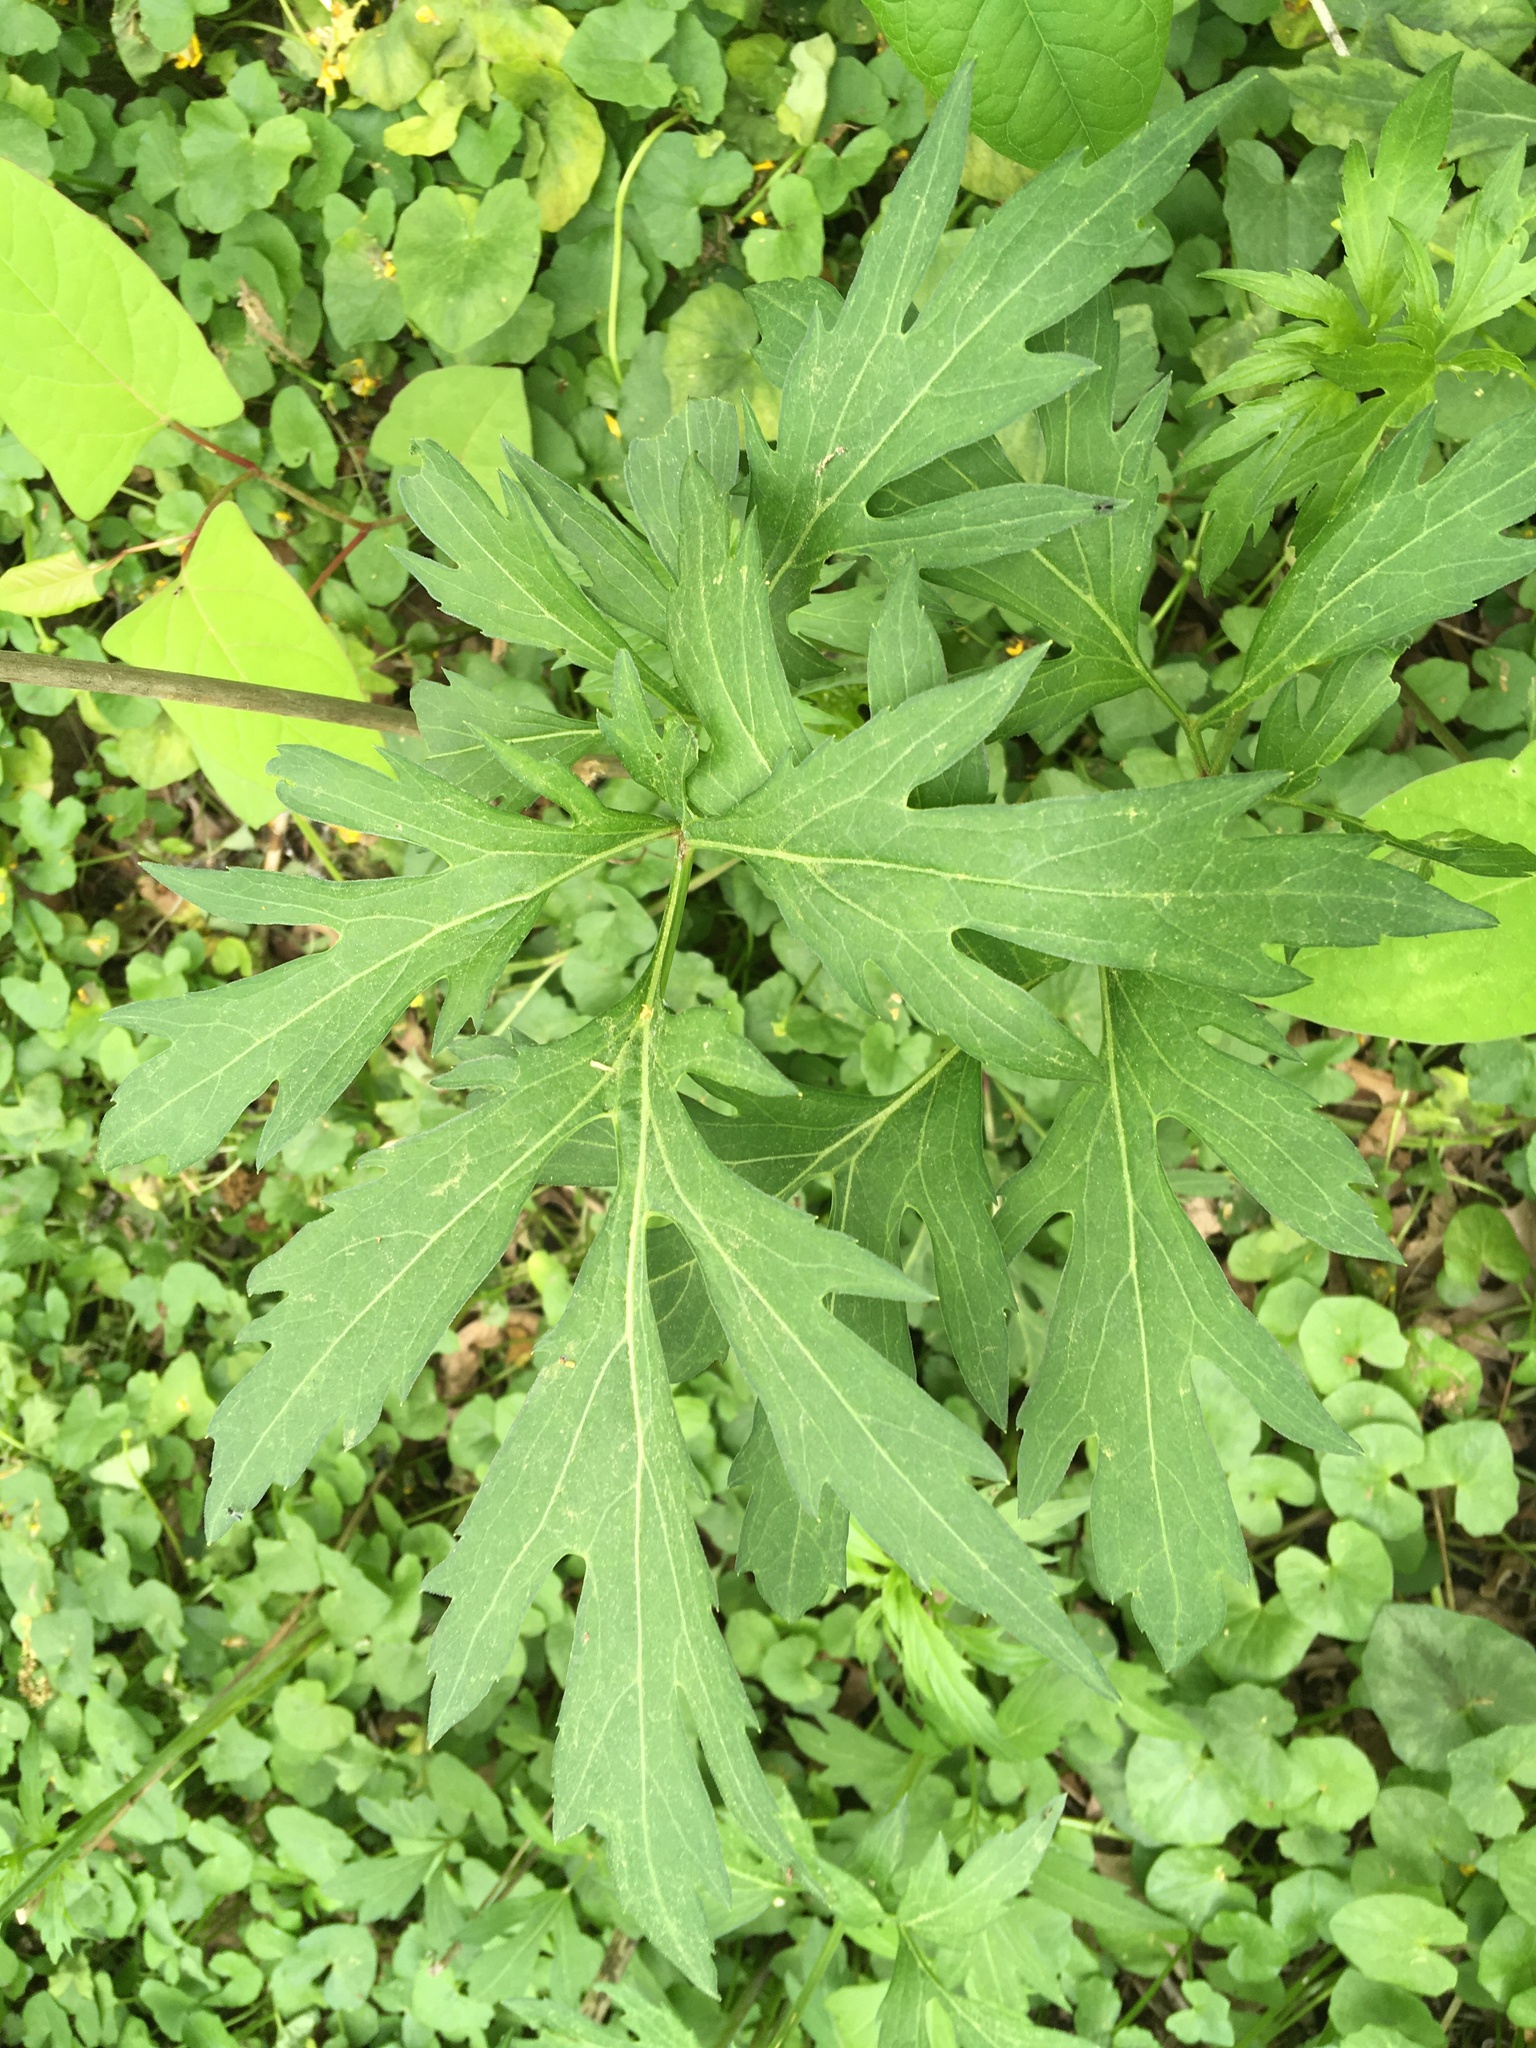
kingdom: Plantae
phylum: Tracheophyta
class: Magnoliopsida
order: Asterales
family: Asteraceae
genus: Rudbeckia
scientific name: Rudbeckia laciniata
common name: Coneflower
